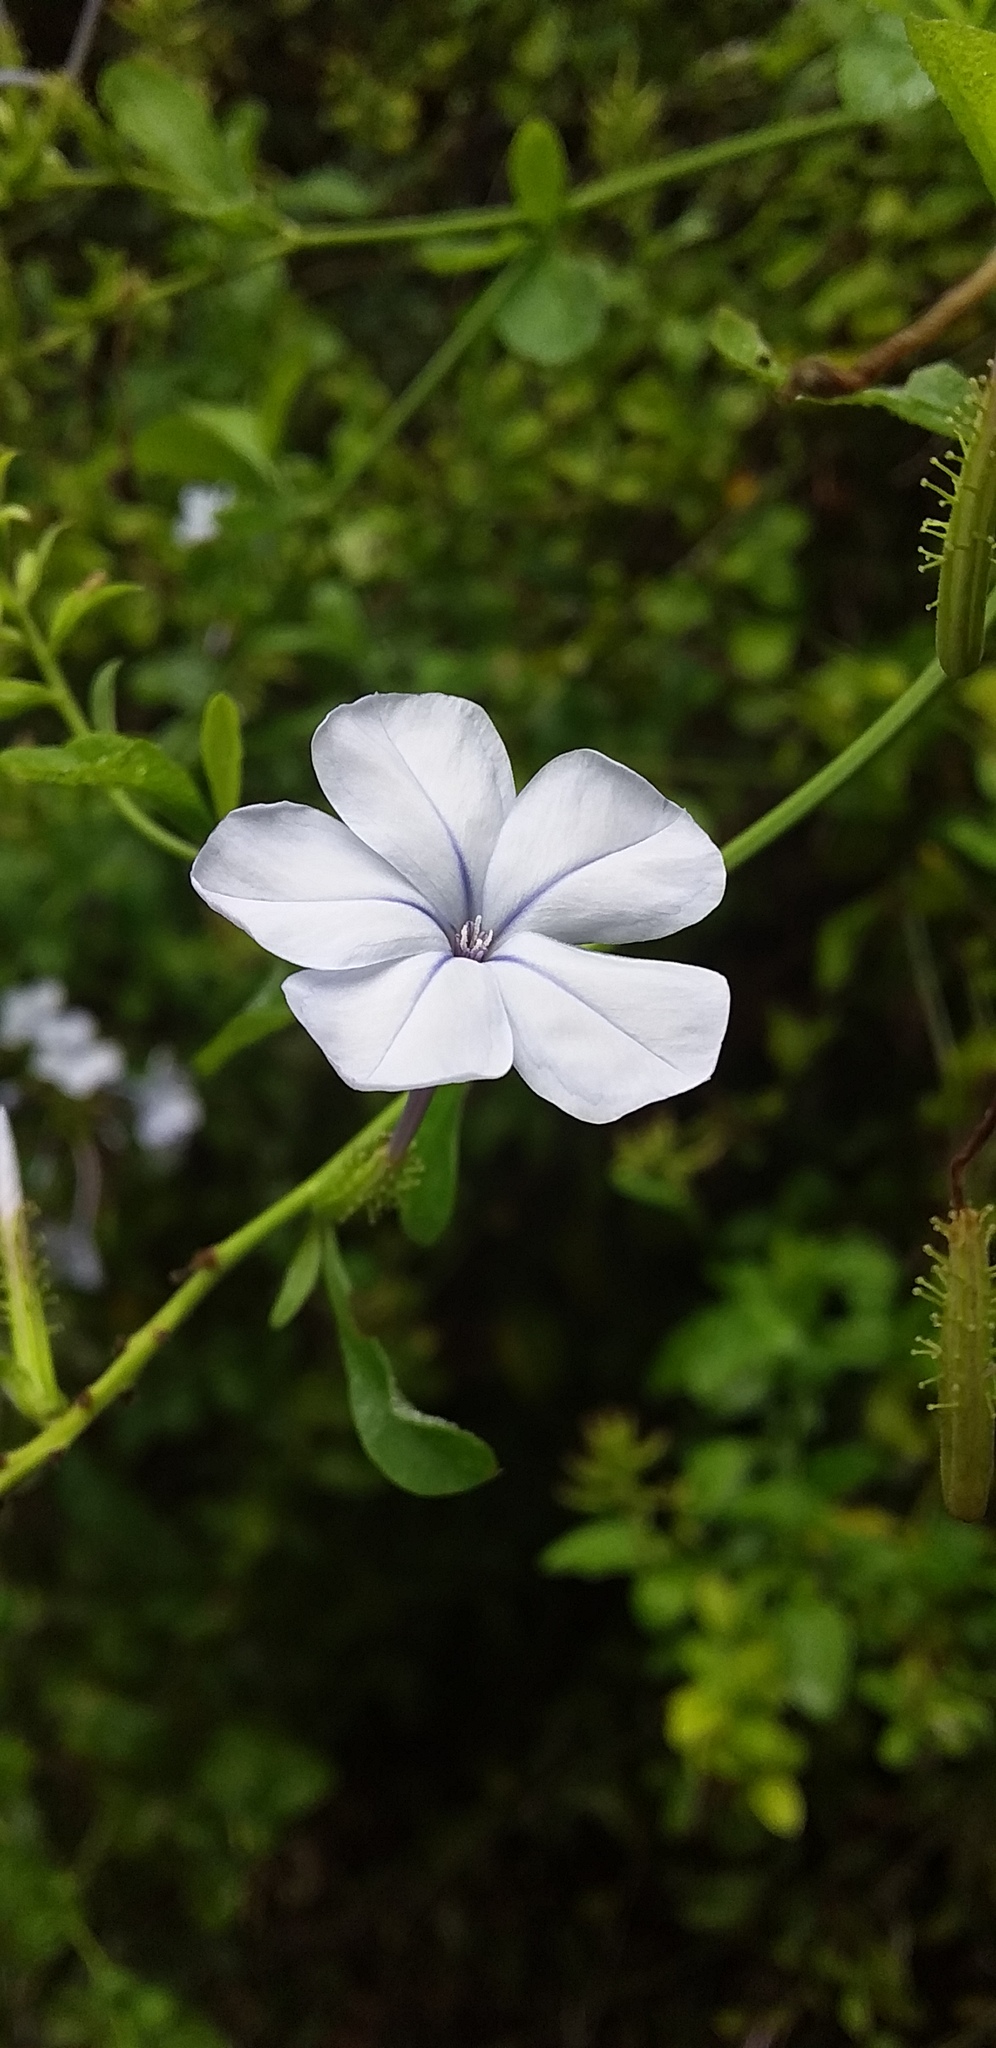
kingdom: Plantae
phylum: Tracheophyta
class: Magnoliopsida
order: Caryophyllales
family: Plumbaginaceae
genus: Plumbago
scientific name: Plumbago auriculata
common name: Cape leadwort
